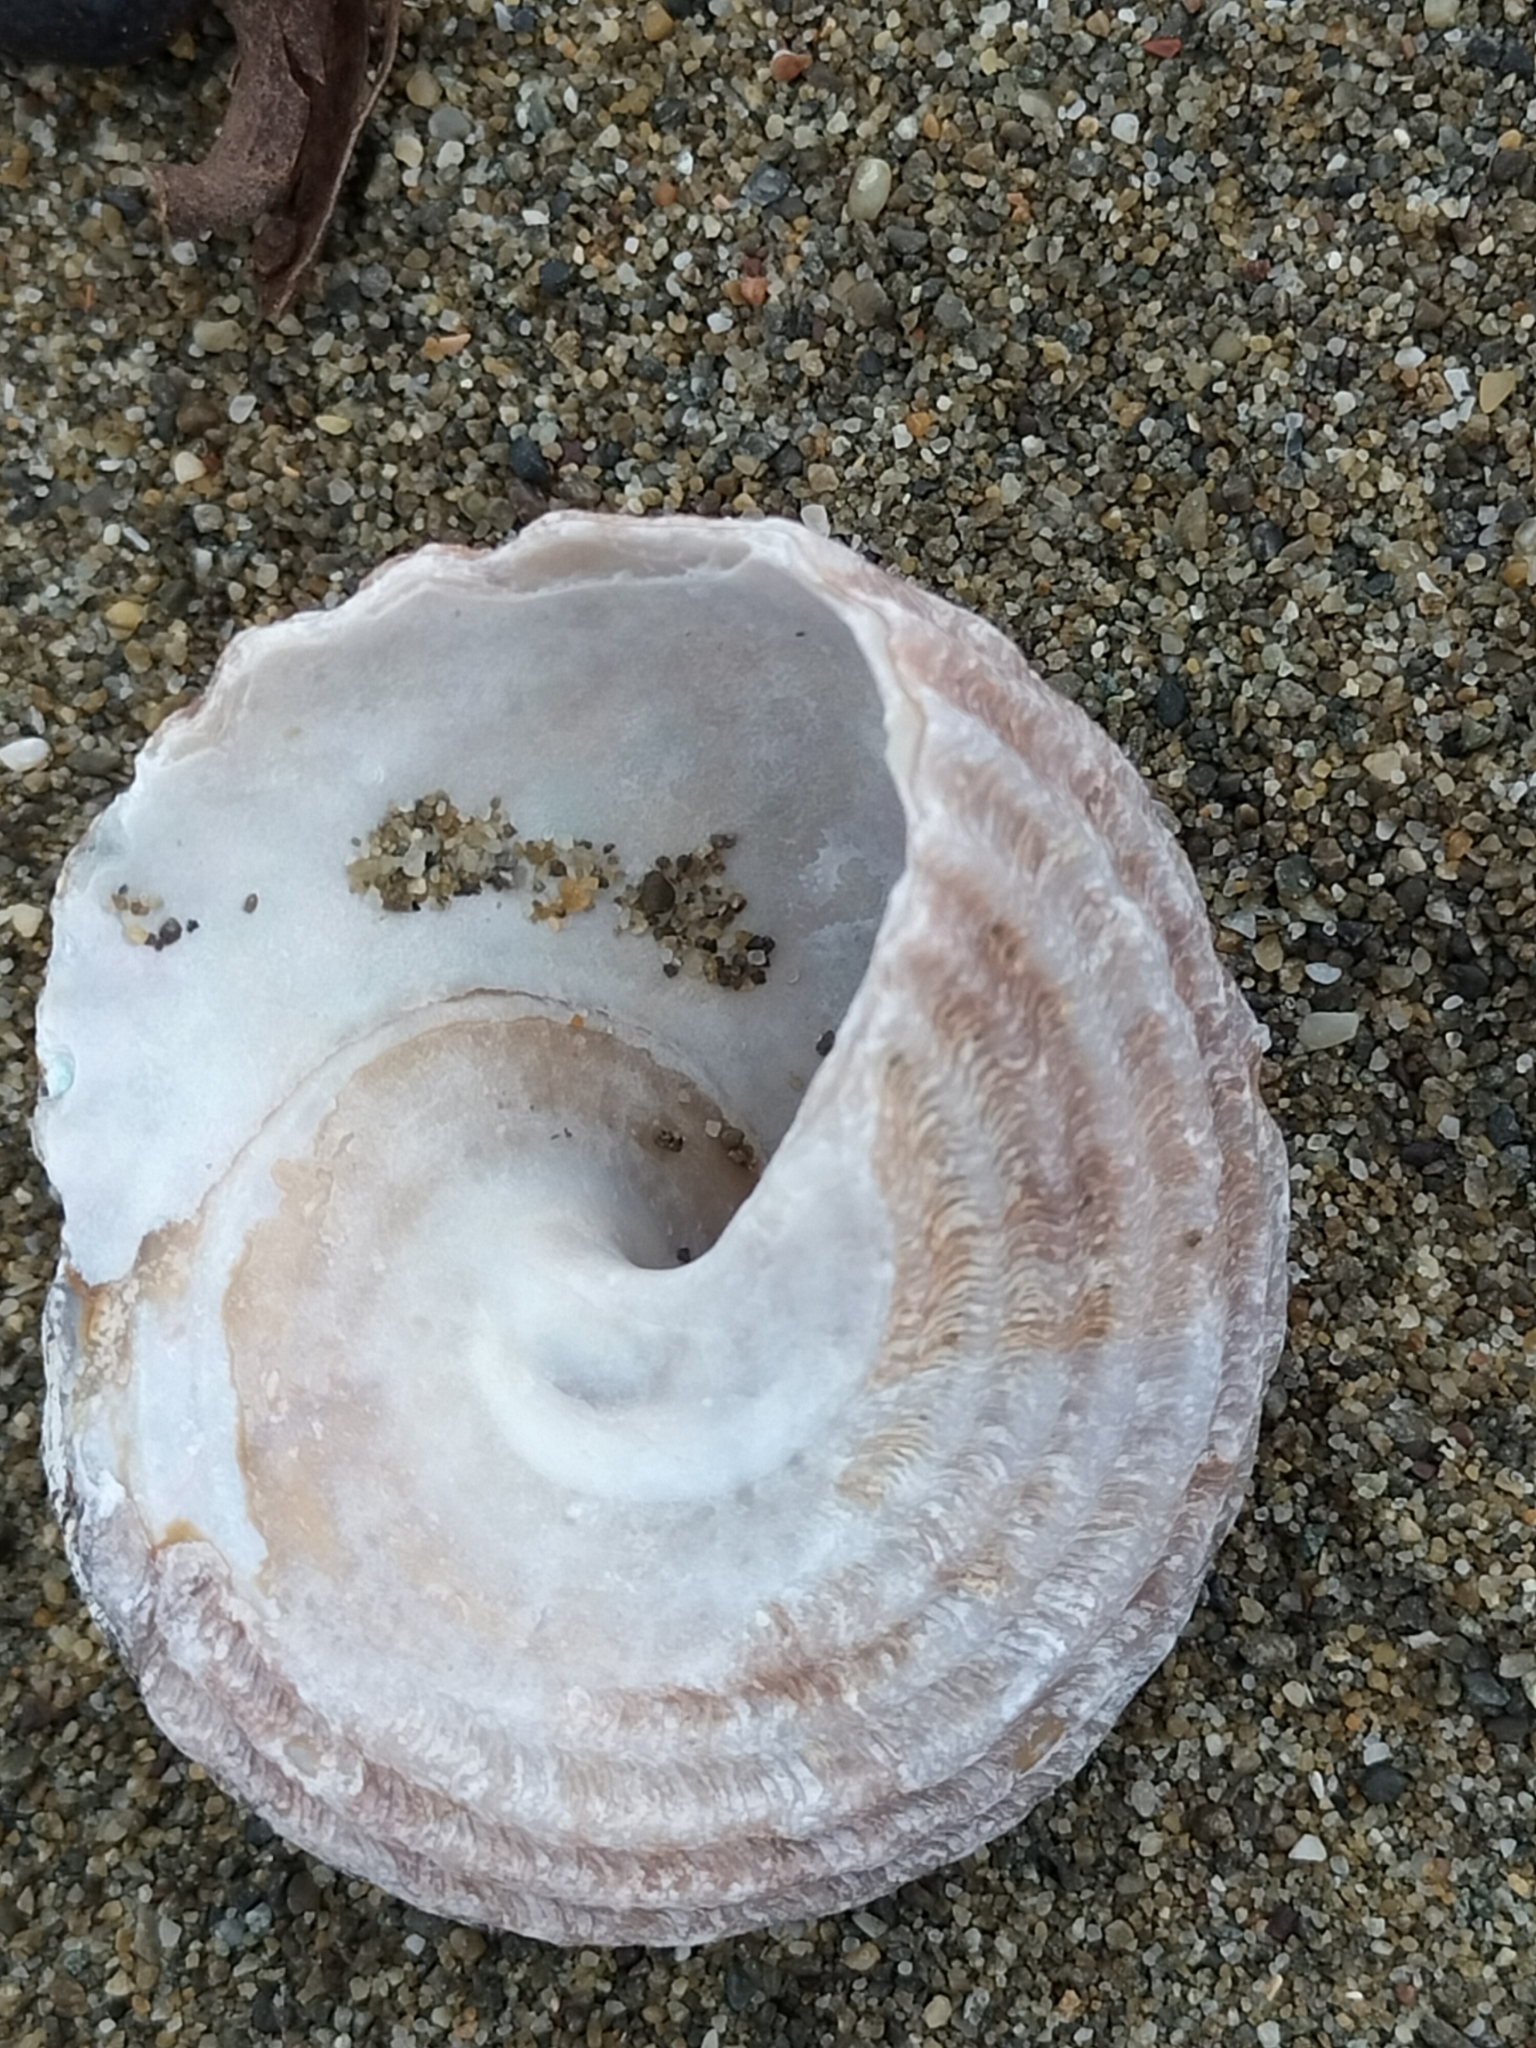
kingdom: Animalia
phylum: Mollusca
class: Gastropoda
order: Trochida
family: Turbinidae
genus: Cookia
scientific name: Cookia sulcata
